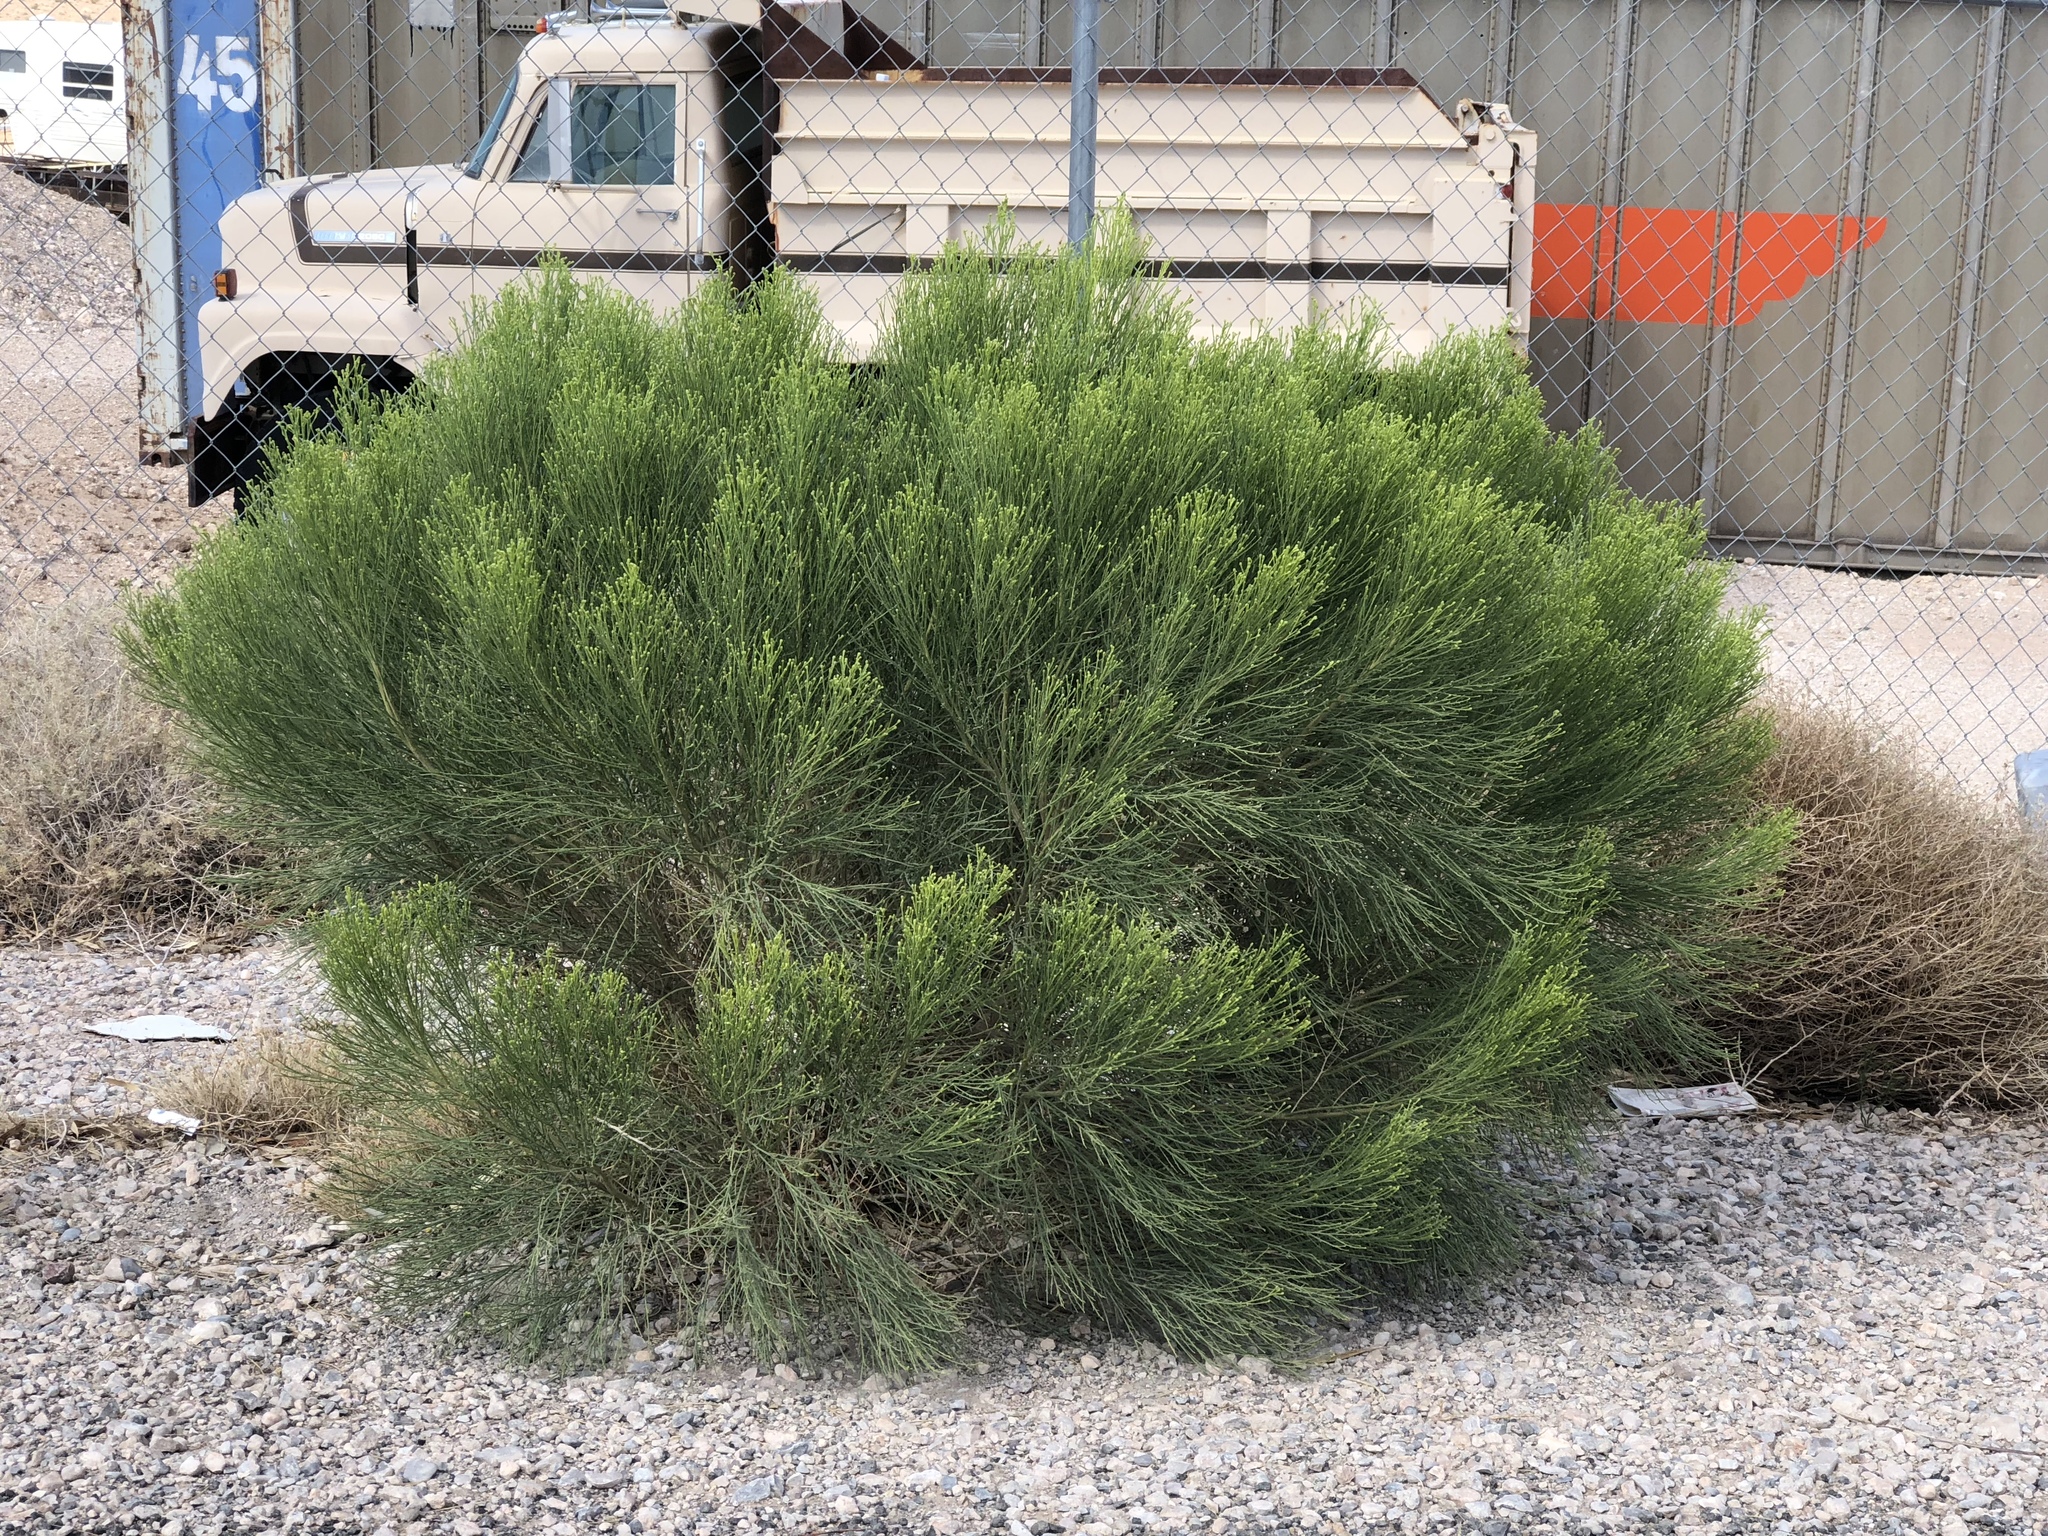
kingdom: Plantae
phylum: Tracheophyta
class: Magnoliopsida
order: Asterales
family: Asteraceae
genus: Baccharis
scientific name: Baccharis sarothroides
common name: Desert-broom
